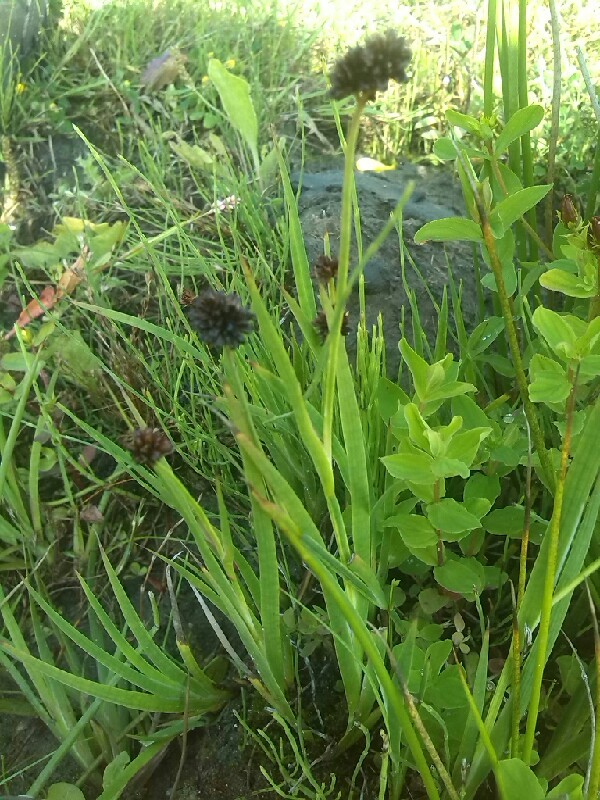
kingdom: Plantae
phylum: Tracheophyta
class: Liliopsida
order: Poales
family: Juncaceae
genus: Juncus
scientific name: Juncus ensifolius
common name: Sword-leaved rush
